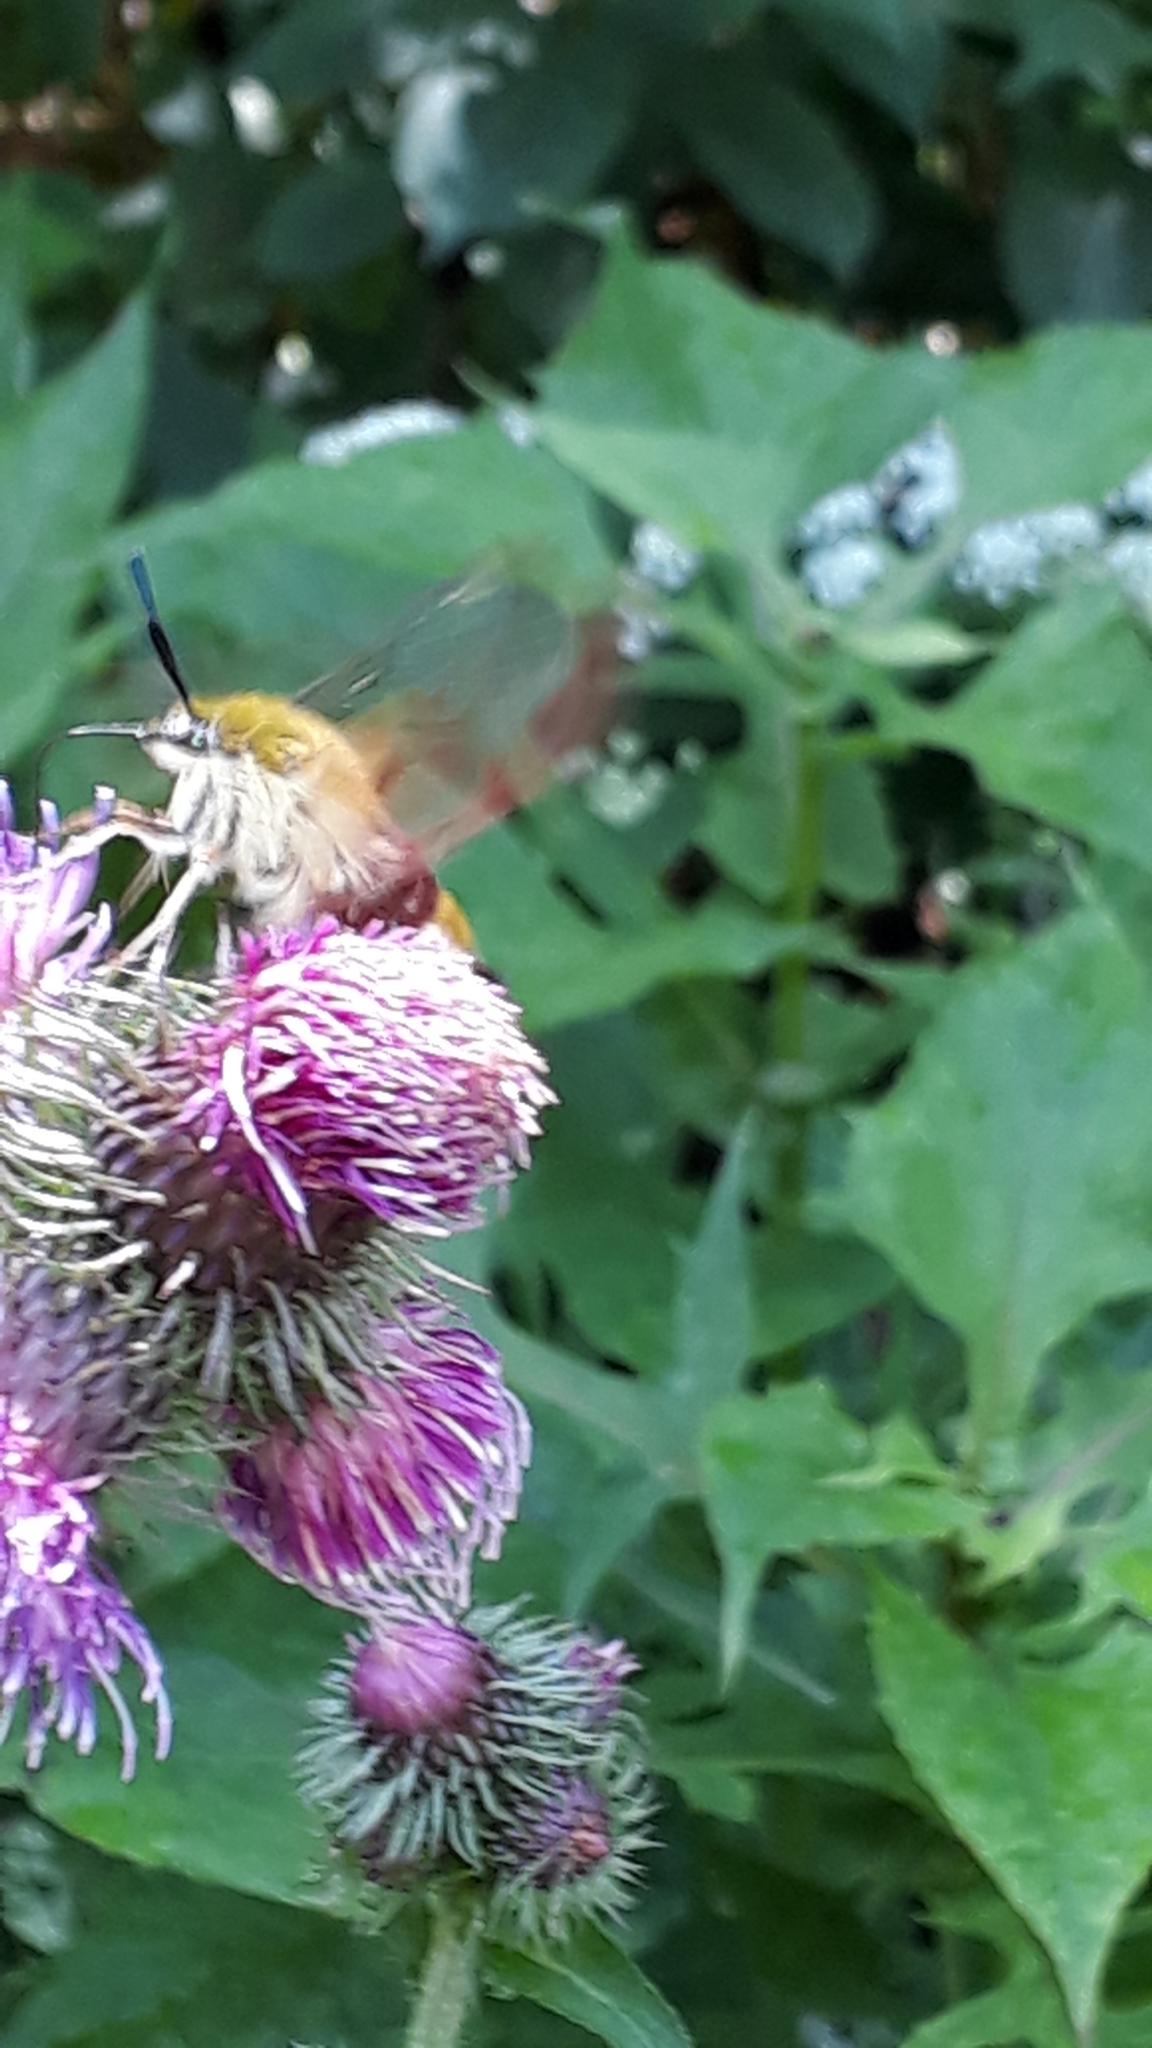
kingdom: Animalia
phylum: Arthropoda
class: Insecta
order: Lepidoptera
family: Sphingidae
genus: Hemaris
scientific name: Hemaris fuciformis
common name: Broad-bordered bee hawk-moth
